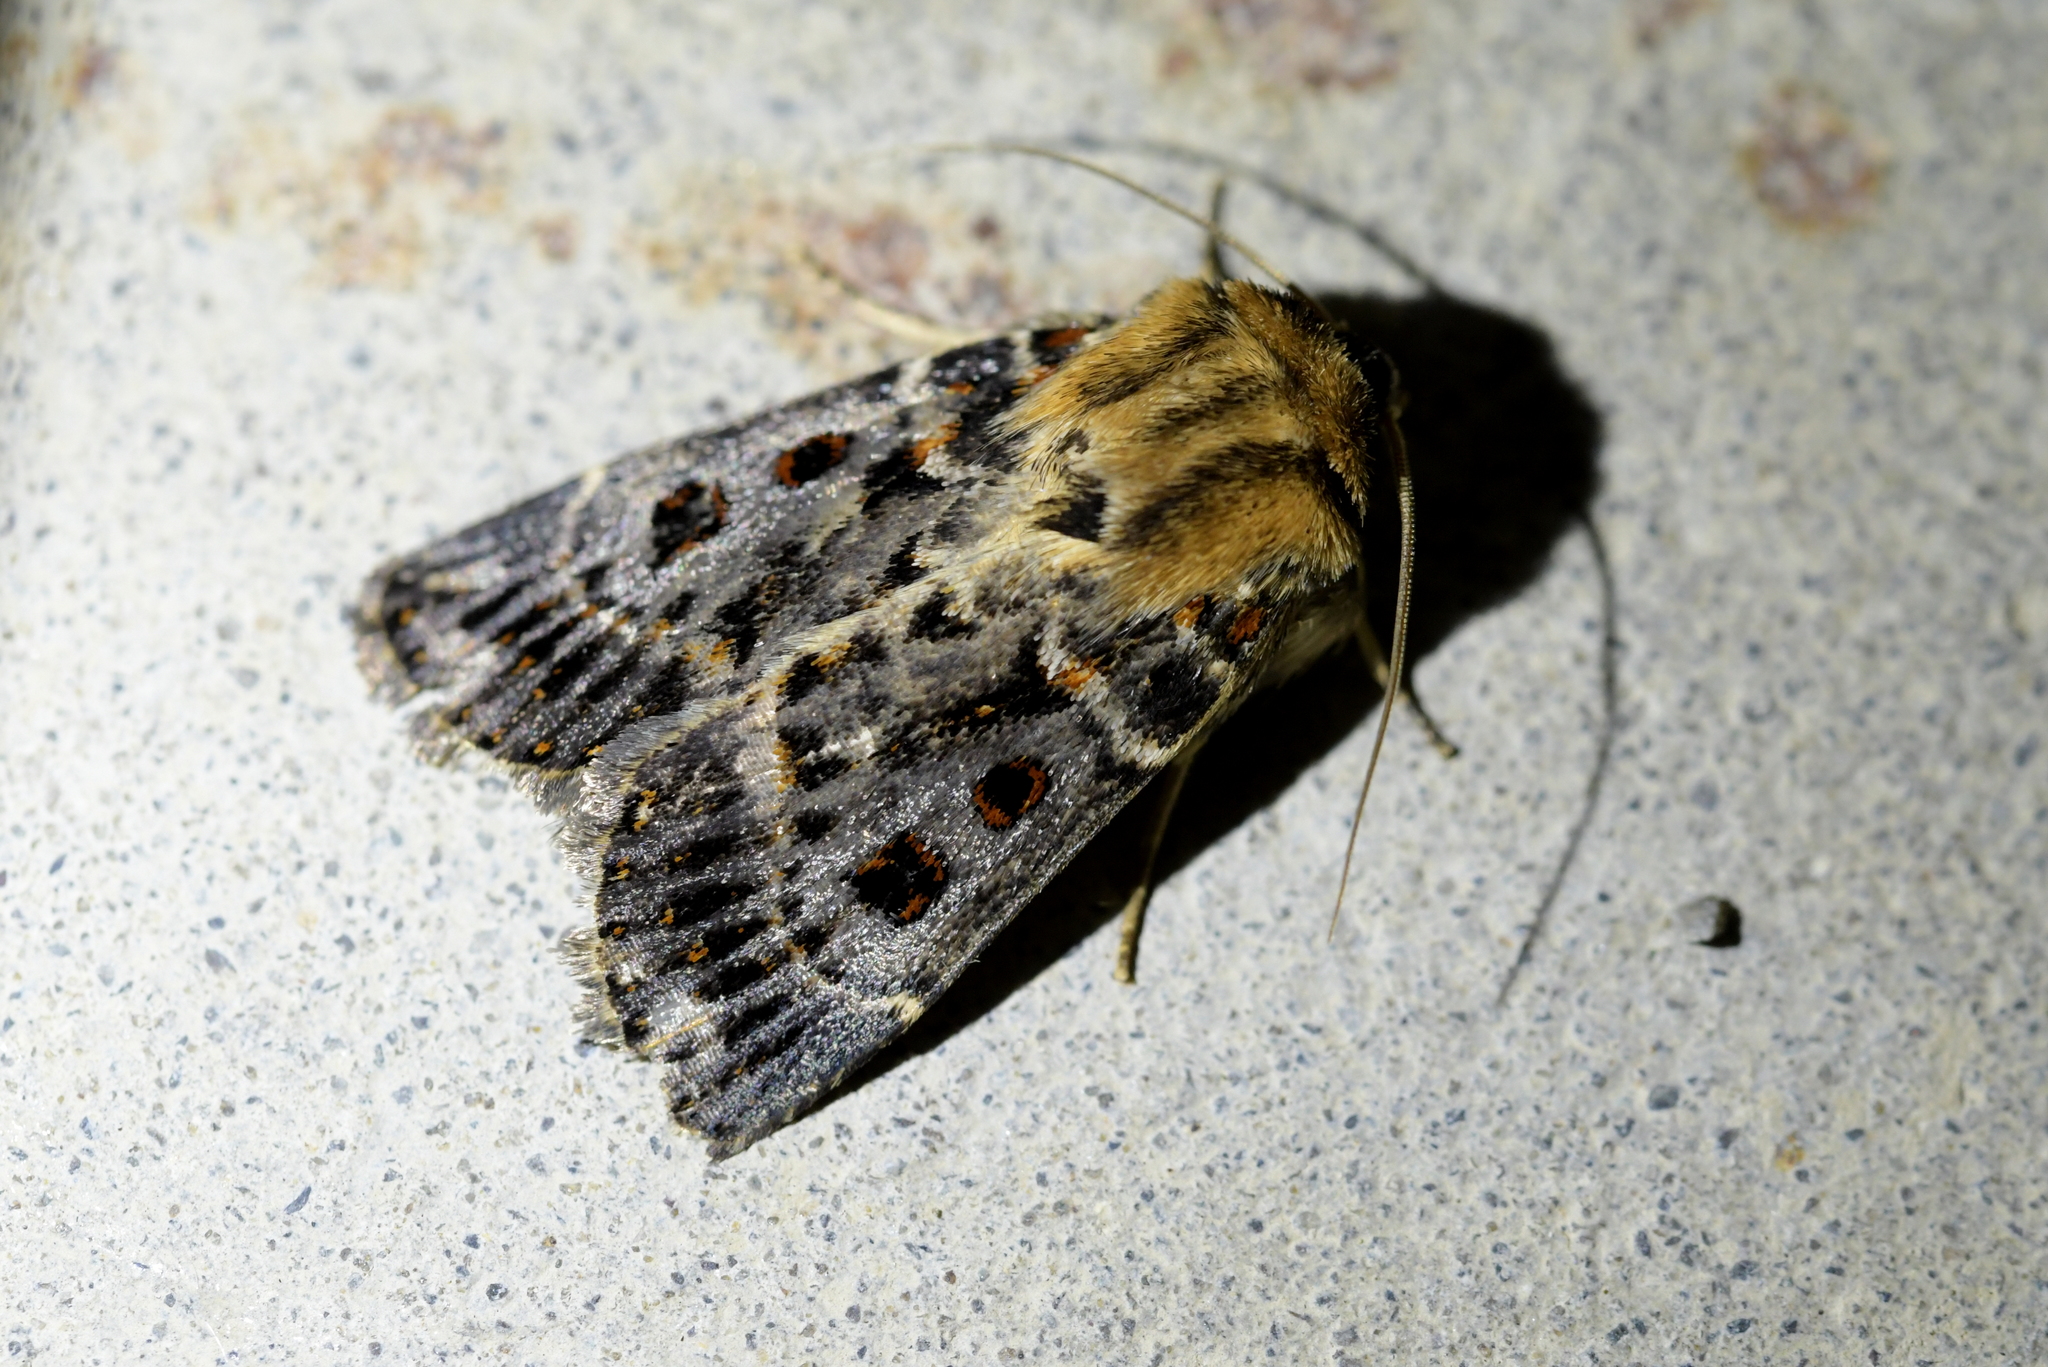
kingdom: Animalia
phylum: Arthropoda
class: Insecta
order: Lepidoptera
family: Noctuidae
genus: Proteuxoa
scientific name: Proteuxoa sanguinipuncta
